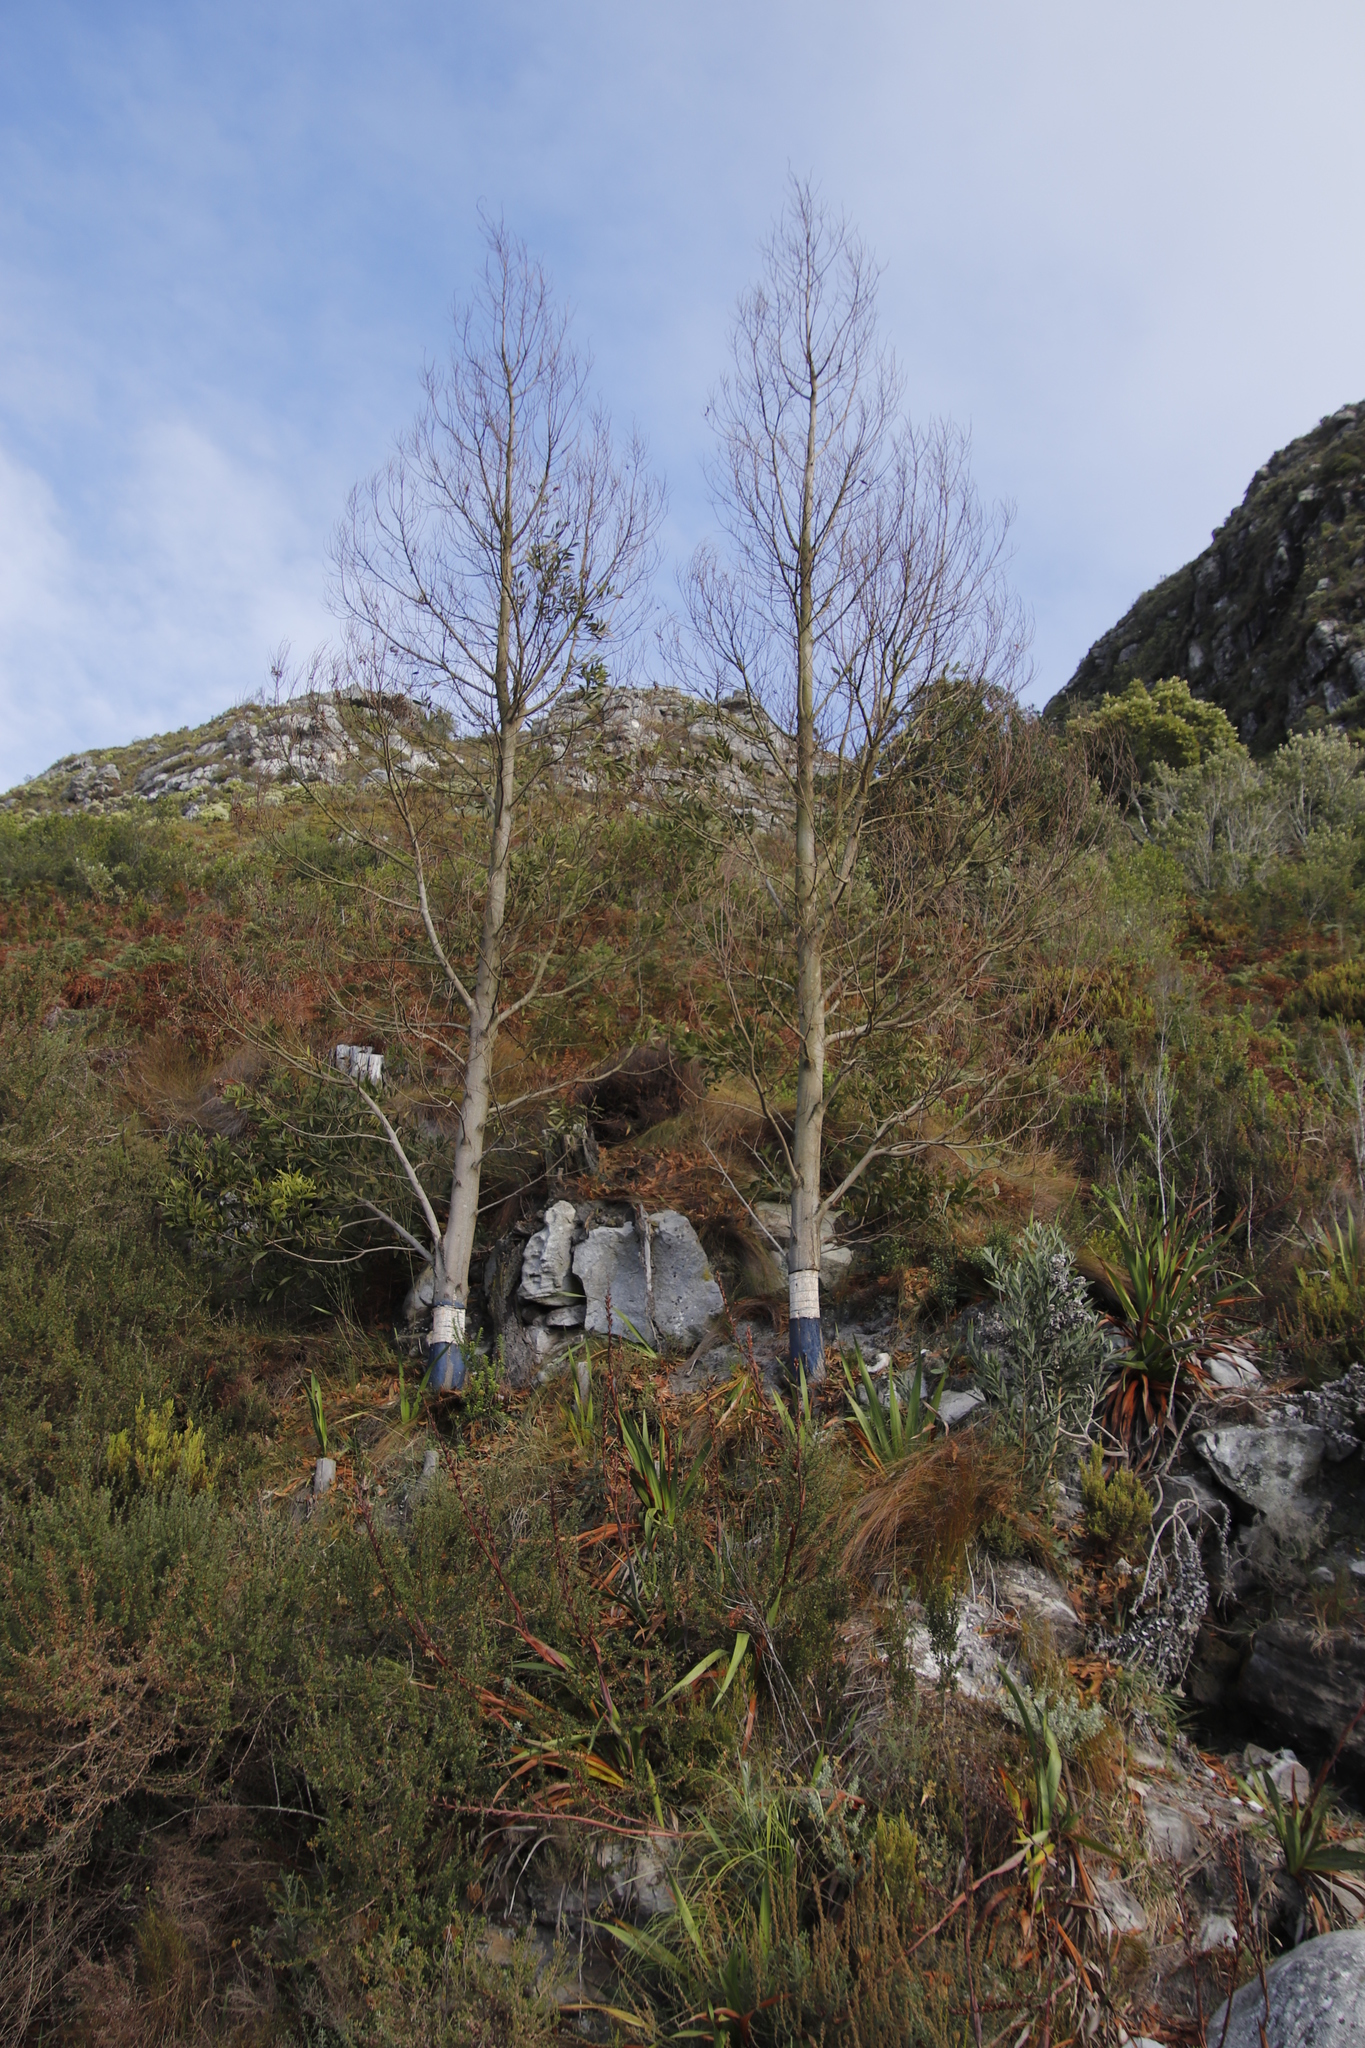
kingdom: Plantae
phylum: Tracheophyta
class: Magnoliopsida
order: Fabales
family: Fabaceae
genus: Acacia
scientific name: Acacia melanoxylon
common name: Blackwood
